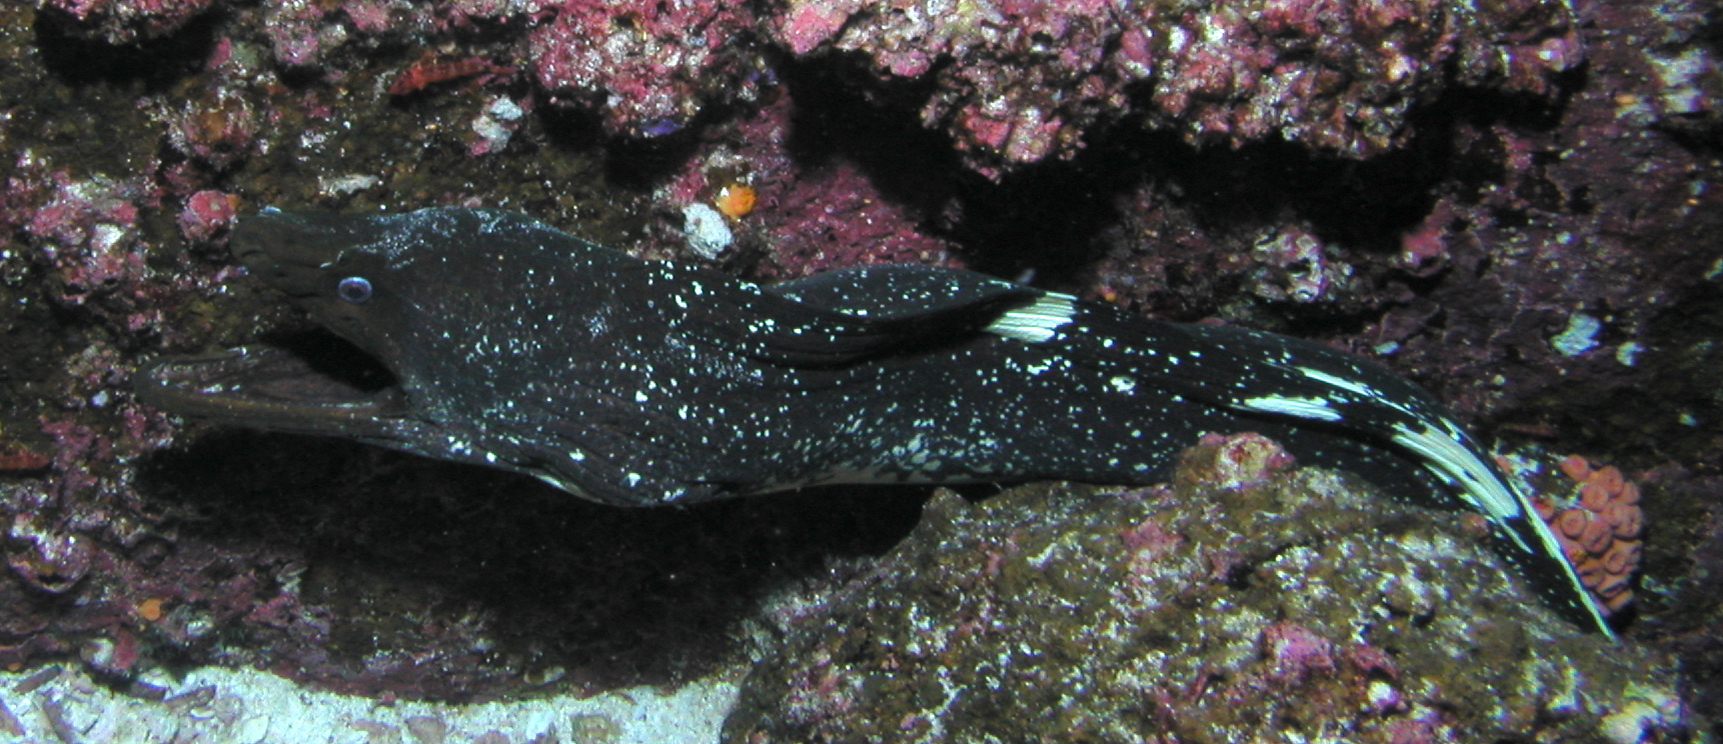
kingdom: Animalia
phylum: Chordata
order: Anguilliformes
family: Muraenidae
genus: Gymnothorax
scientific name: Gymnothorax dovii
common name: Finespotted moray
